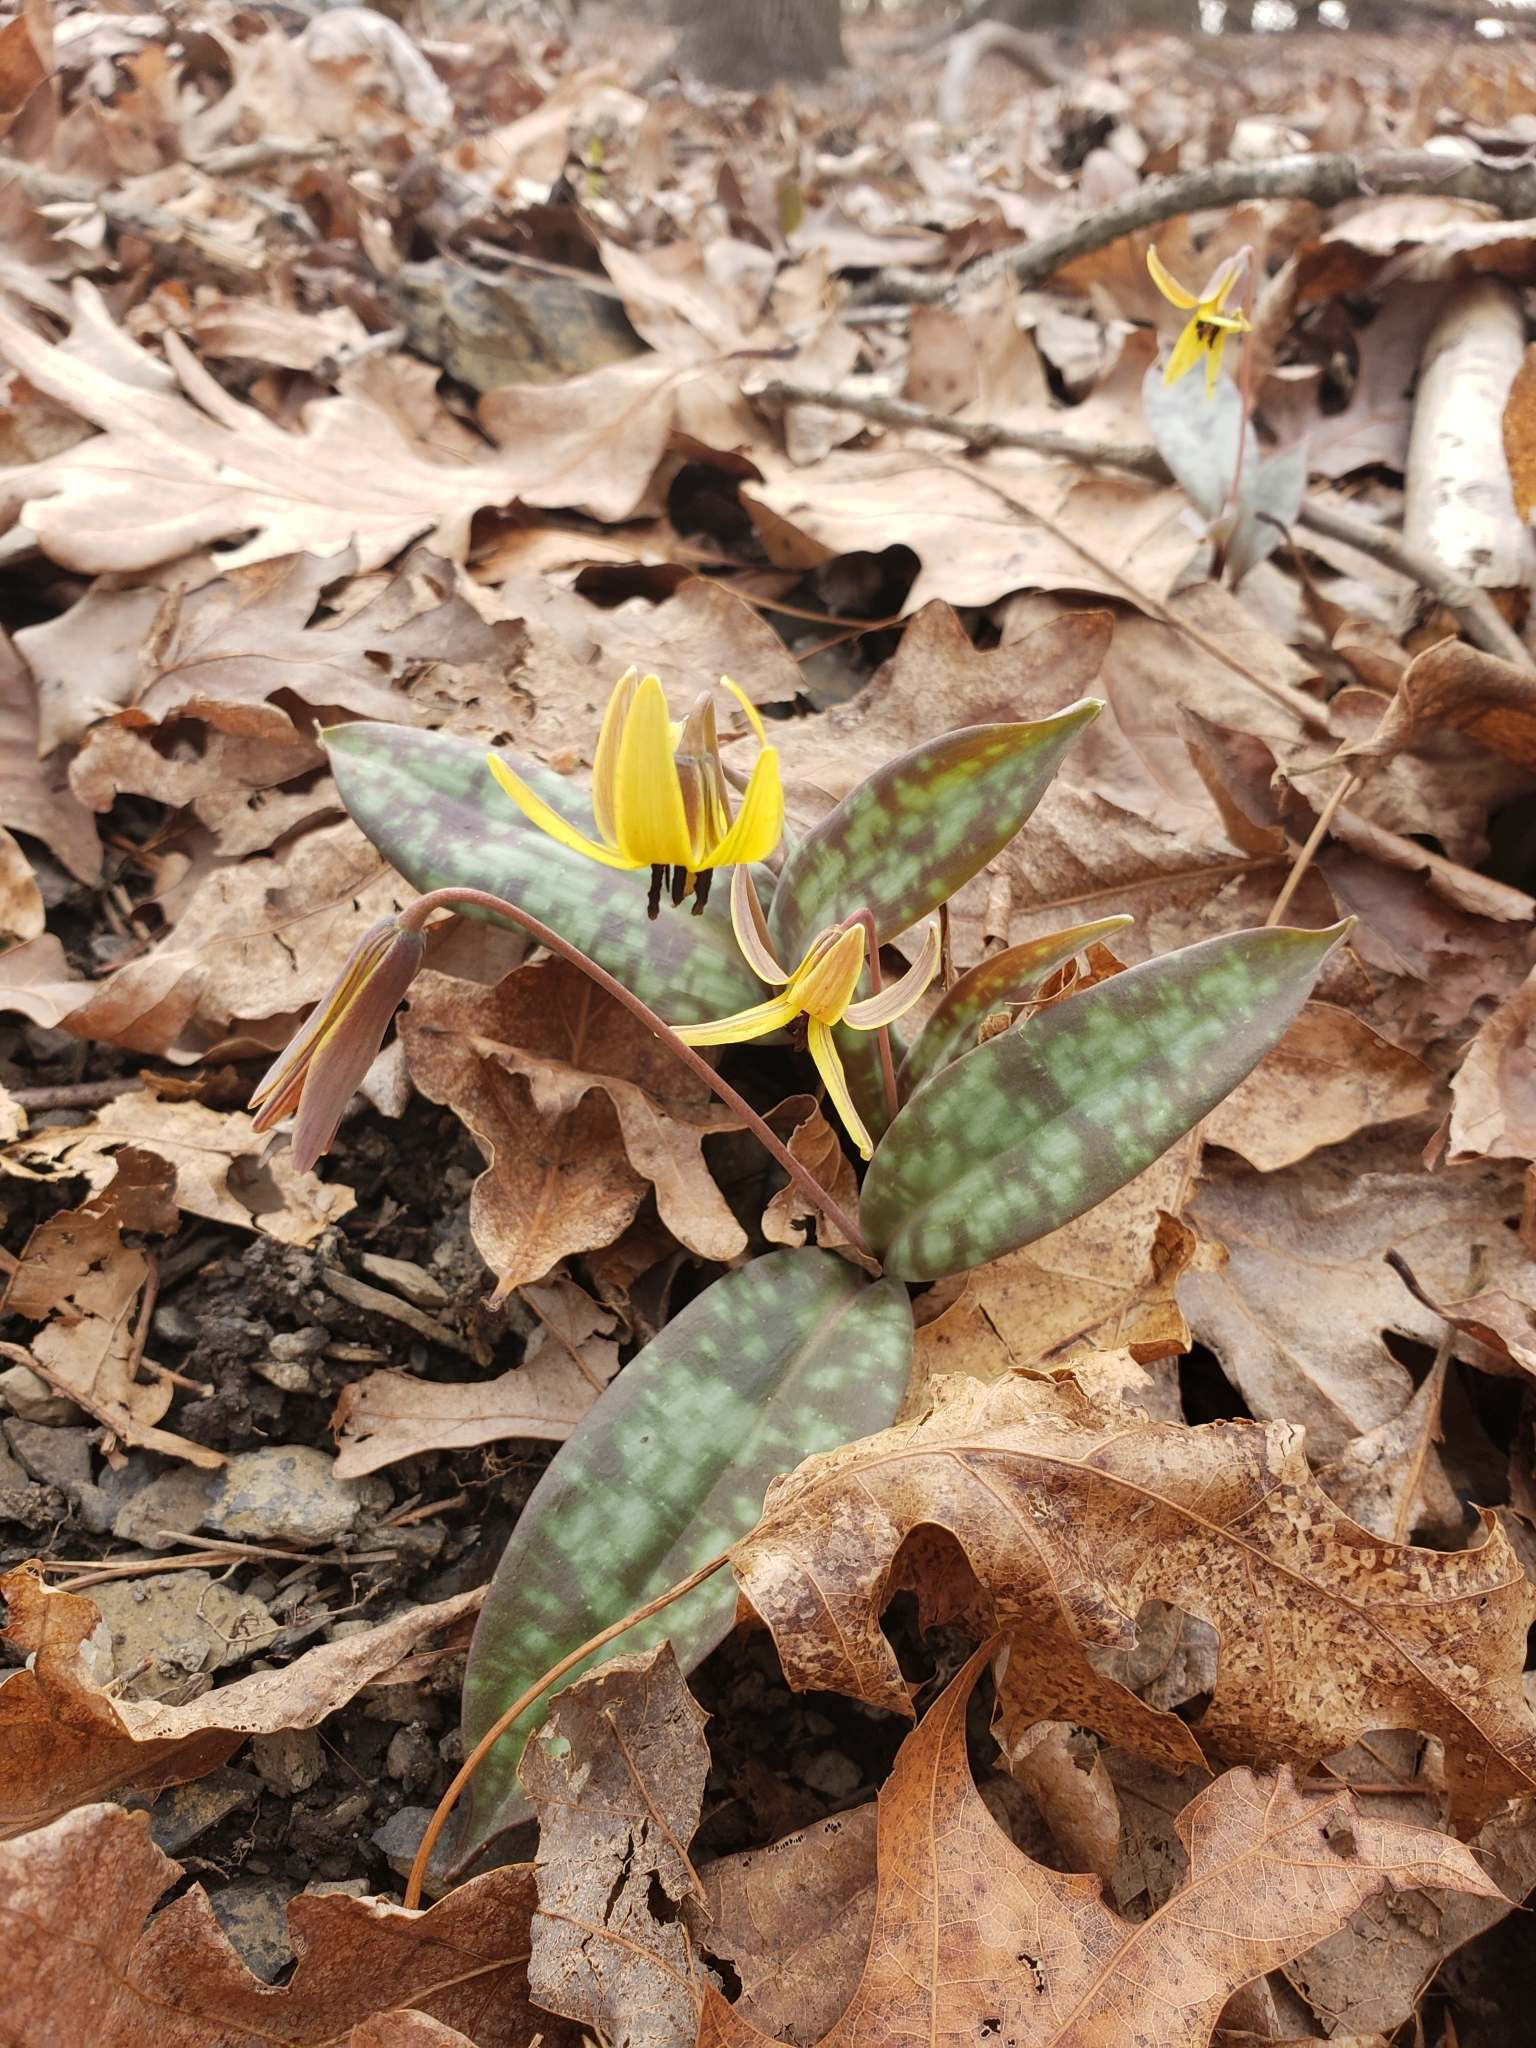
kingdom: Plantae
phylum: Tracheophyta
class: Liliopsida
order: Liliales
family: Liliaceae
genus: Erythronium
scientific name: Erythronium umbilicatum
